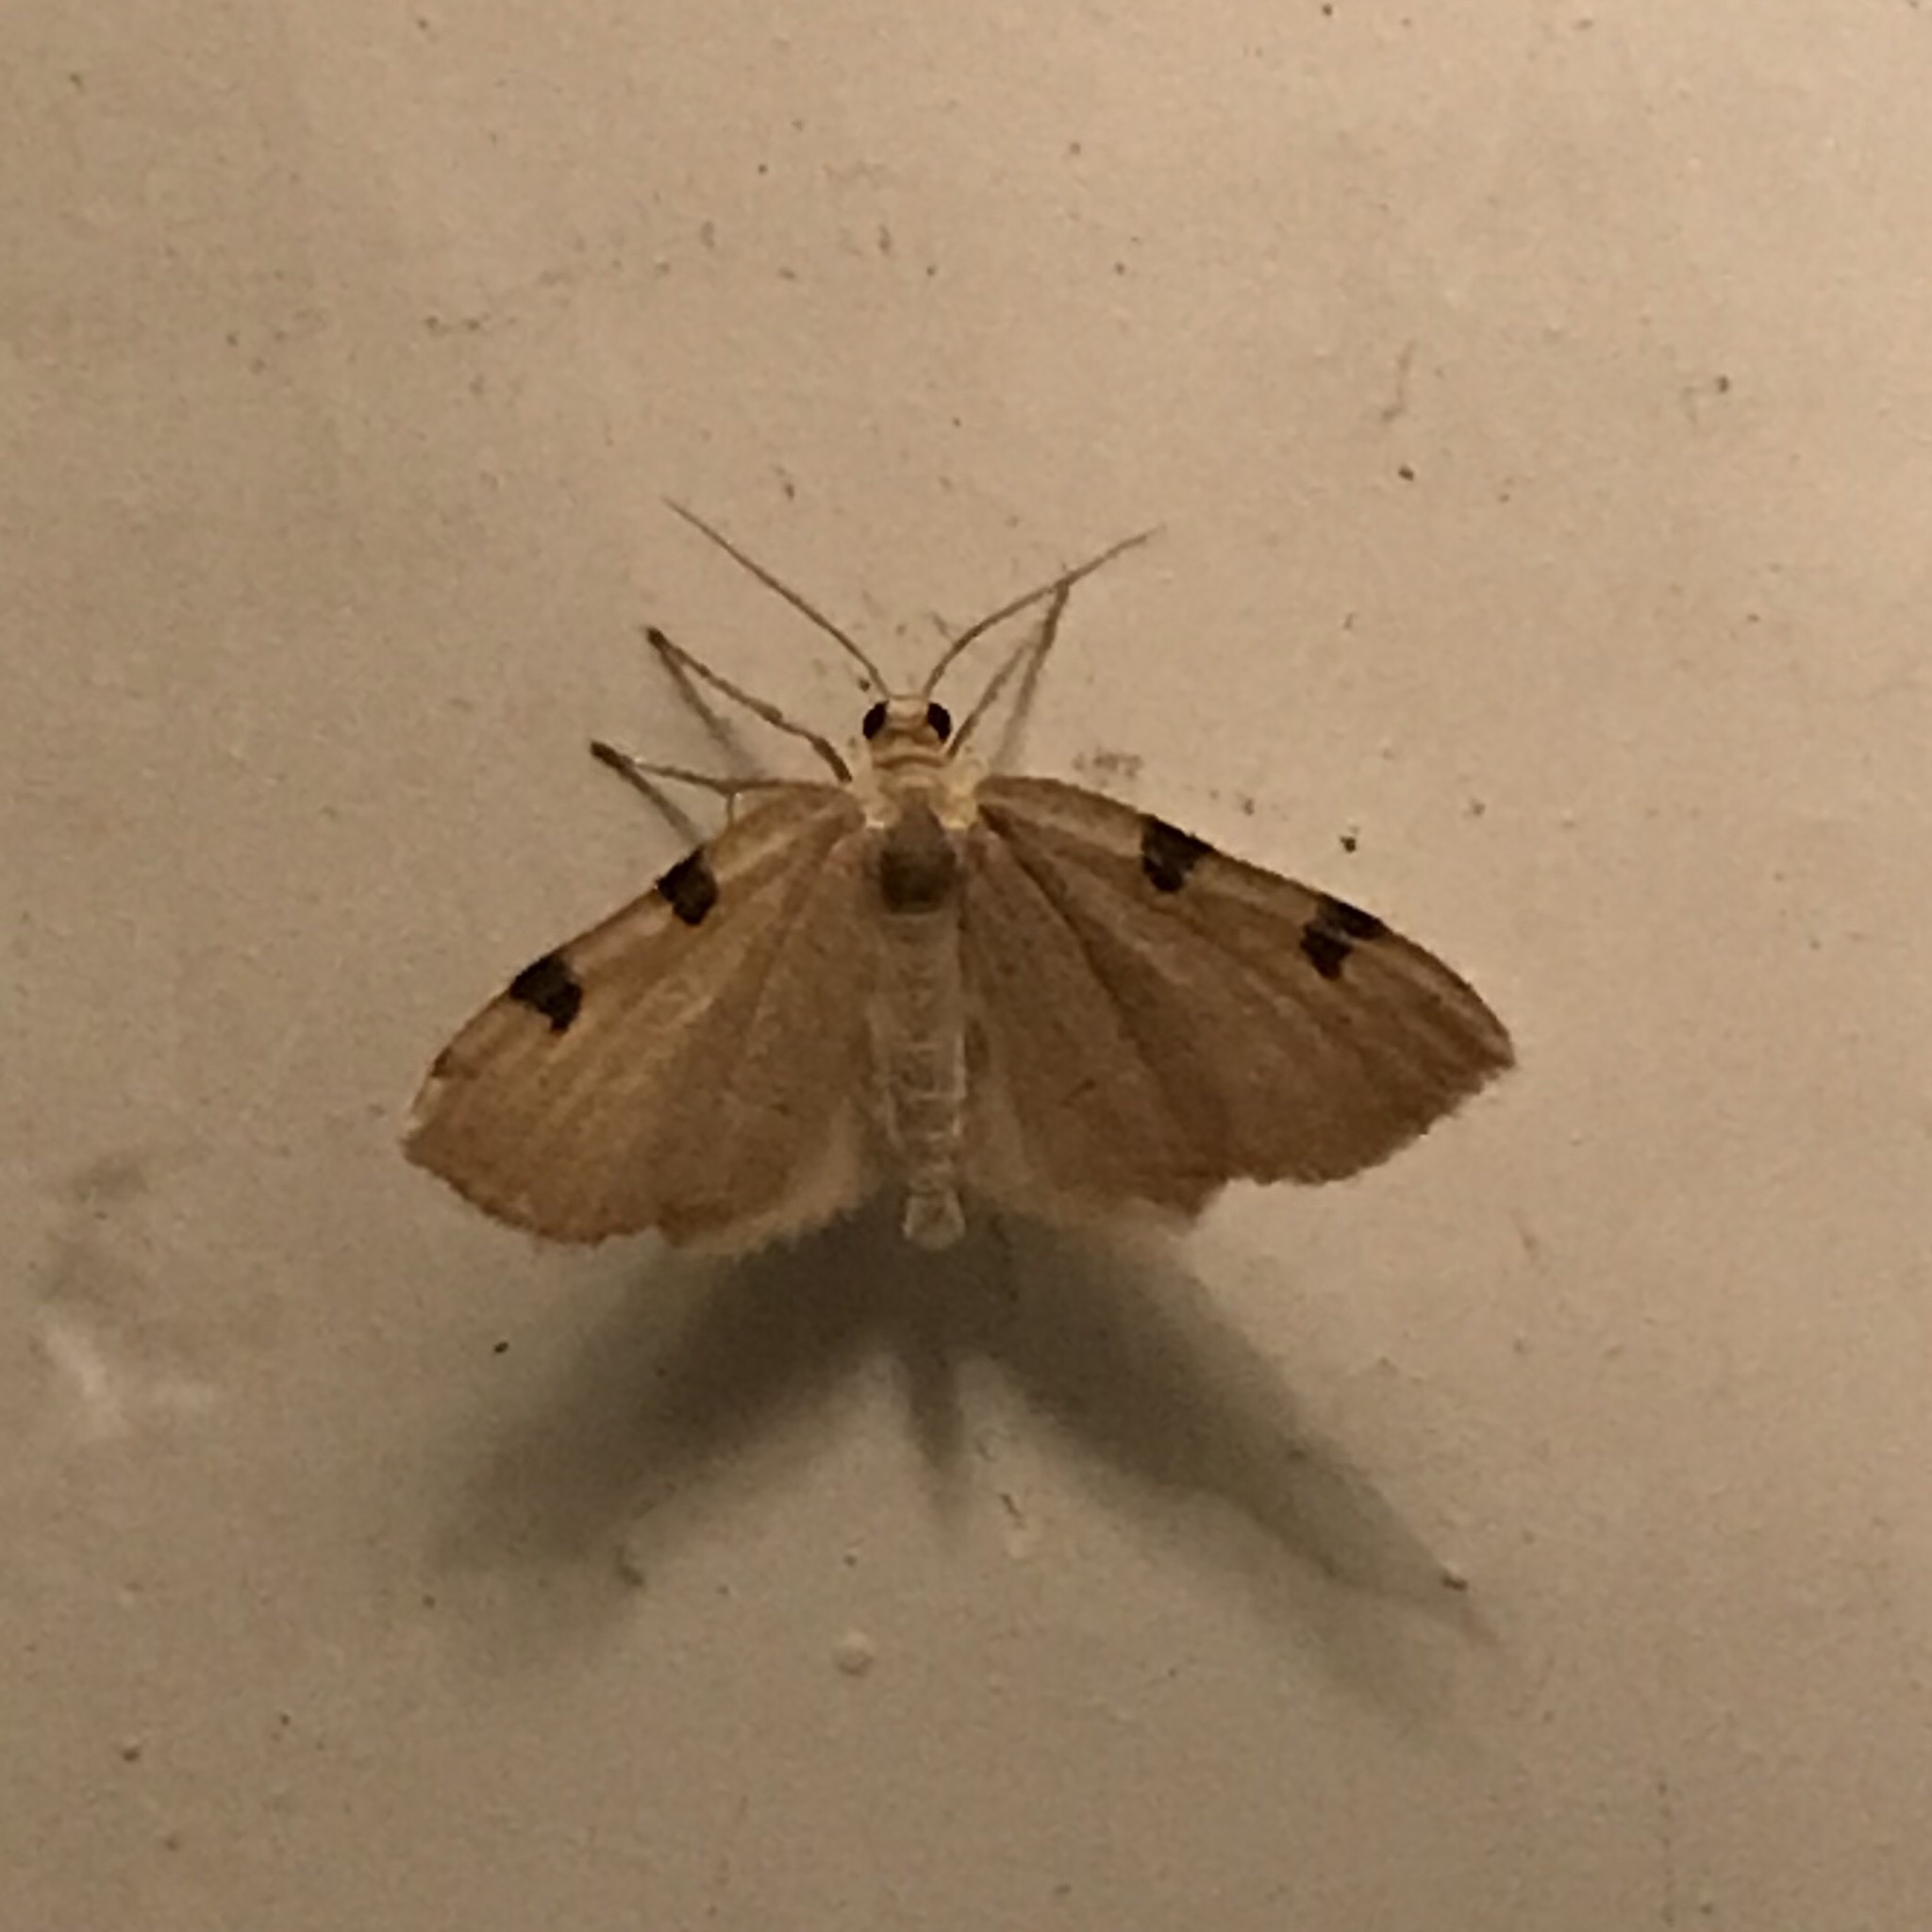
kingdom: Animalia
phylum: Arthropoda
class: Insecta
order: Lepidoptera
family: Geometridae
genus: Heterophleps
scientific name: Heterophleps triguttaria
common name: Three-spotted fillip
